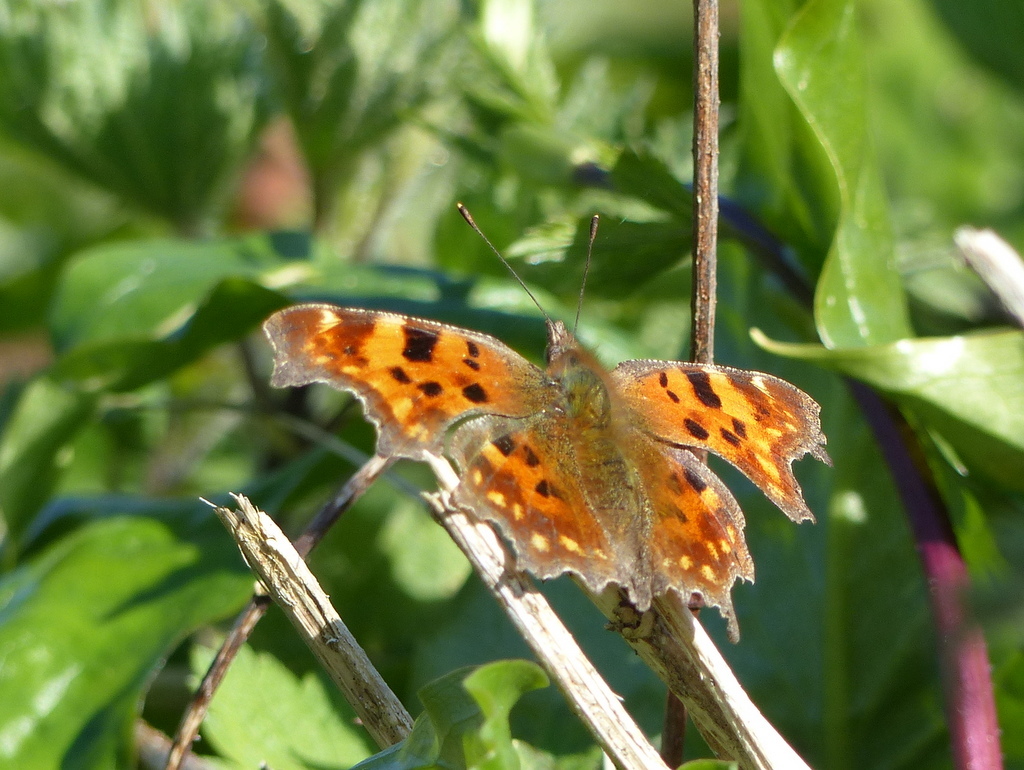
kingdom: Animalia
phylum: Arthropoda
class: Insecta
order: Lepidoptera
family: Nymphalidae
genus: Polygonia
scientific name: Polygonia c-album
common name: Comma
